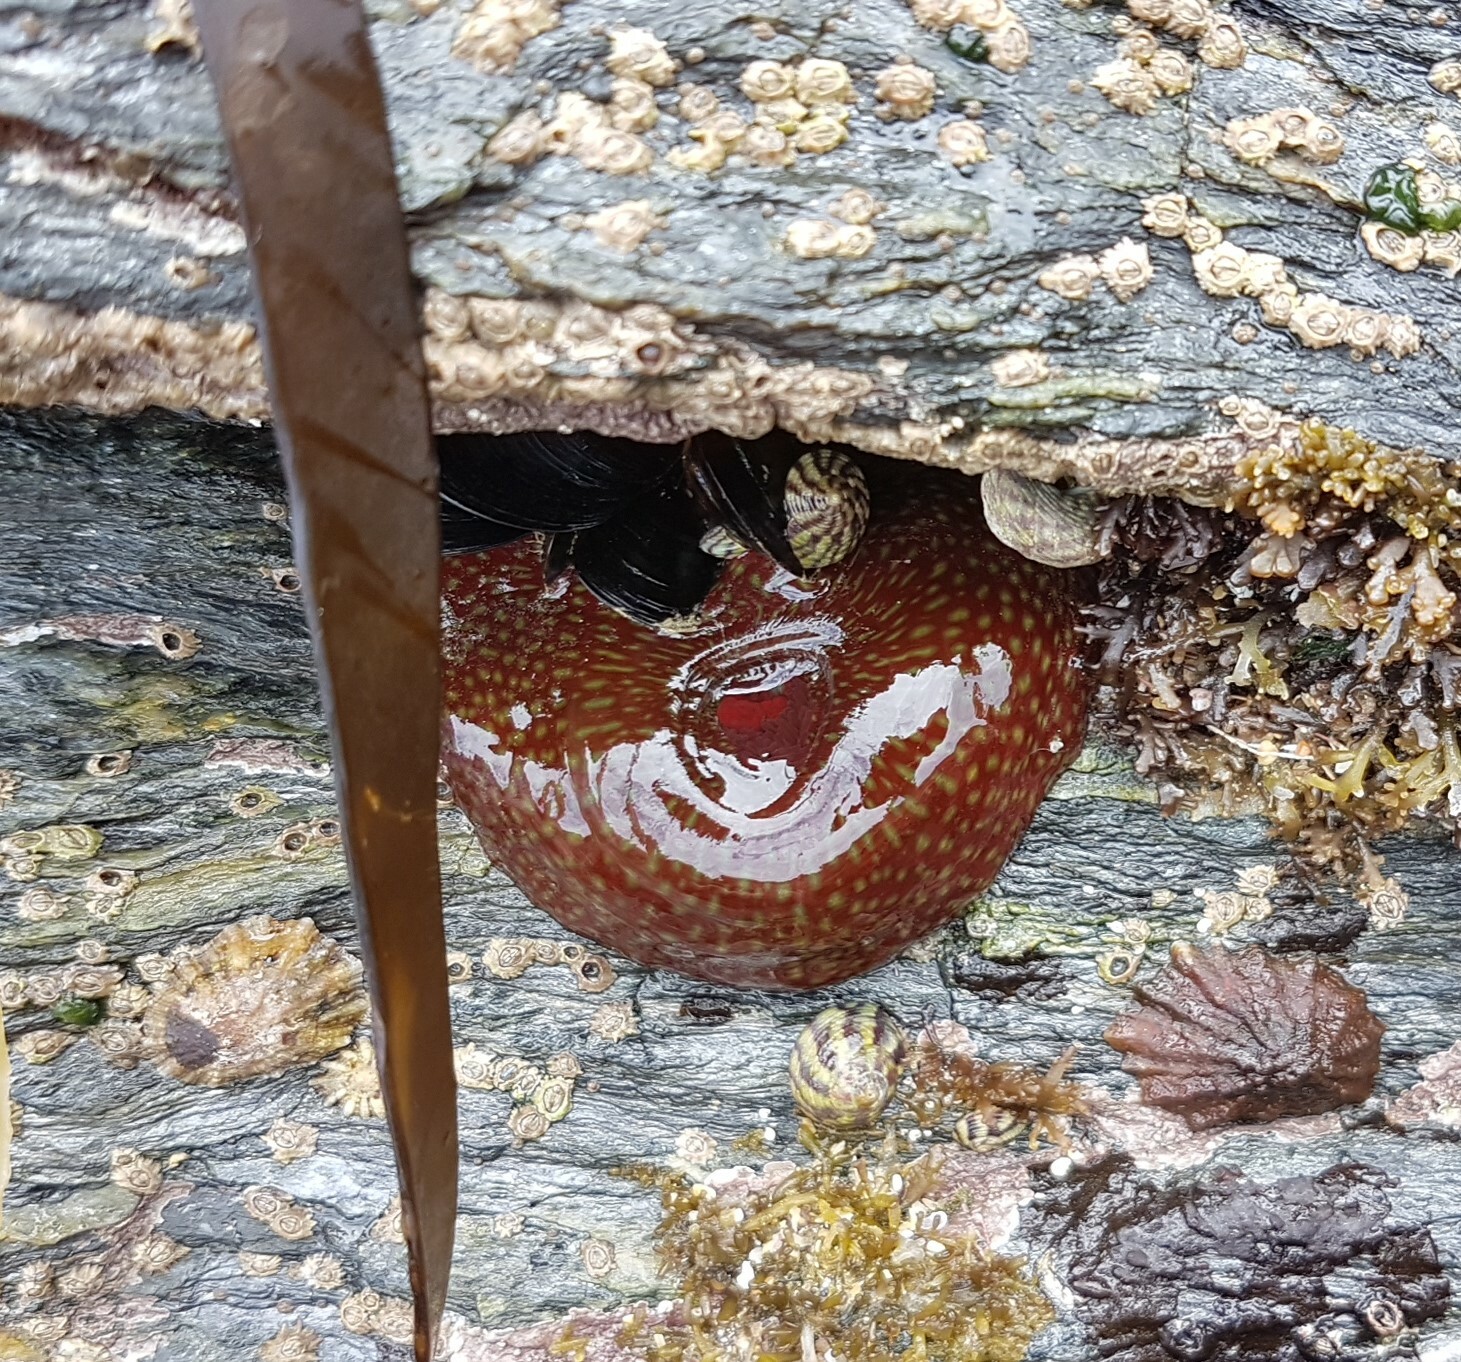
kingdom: Animalia
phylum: Cnidaria
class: Anthozoa
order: Actiniaria
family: Actiniidae
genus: Actinia
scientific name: Actinia fragacea
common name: Strawberry anemone
